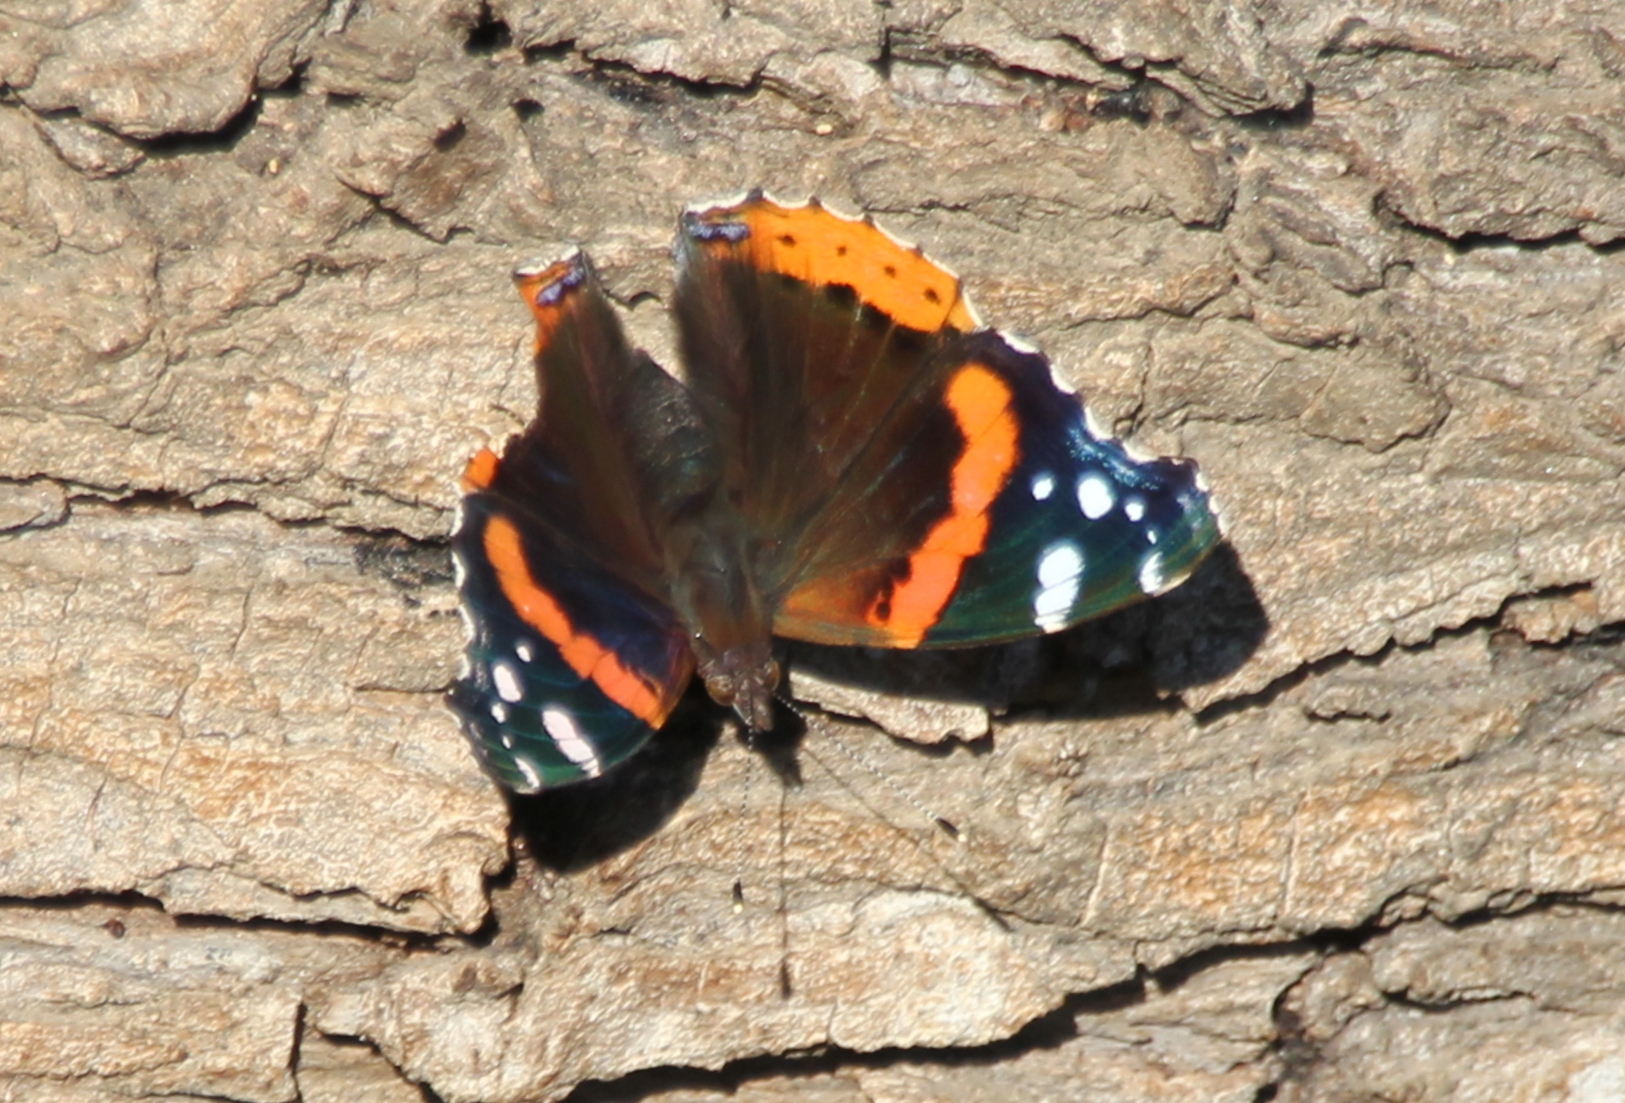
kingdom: Animalia
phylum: Arthropoda
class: Insecta
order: Lepidoptera
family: Nymphalidae
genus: Vanessa
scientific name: Vanessa atalanta
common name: Red admiral
